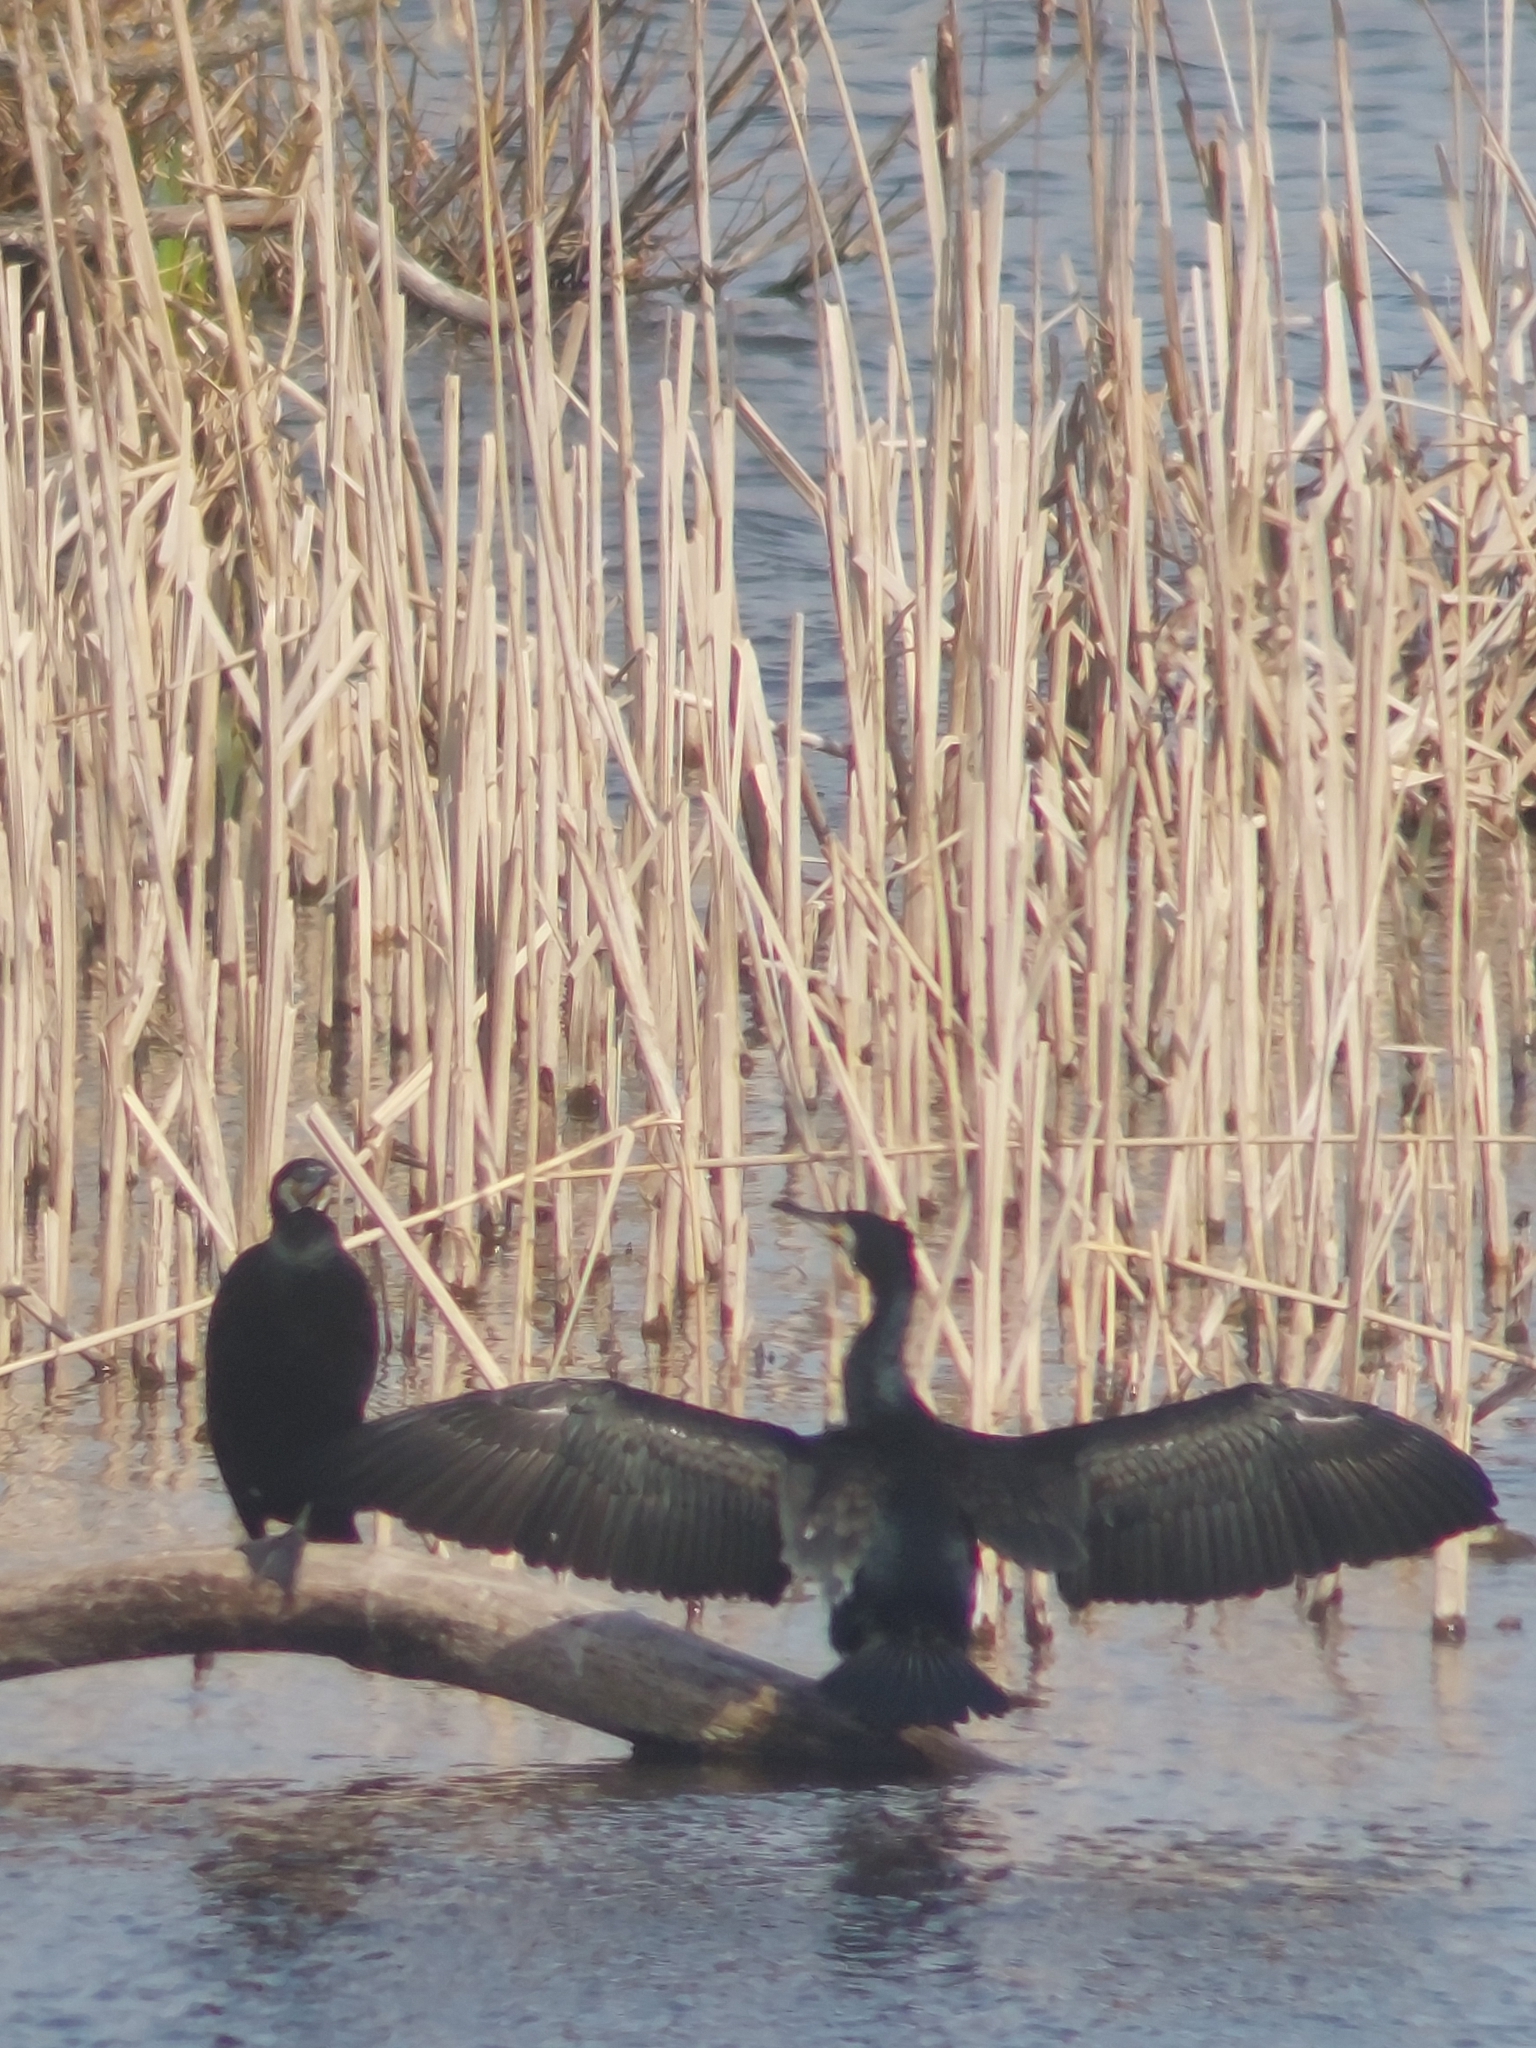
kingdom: Animalia
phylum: Chordata
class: Aves
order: Suliformes
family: Phalacrocoracidae
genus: Phalacrocorax
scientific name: Phalacrocorax carbo
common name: Great cormorant
